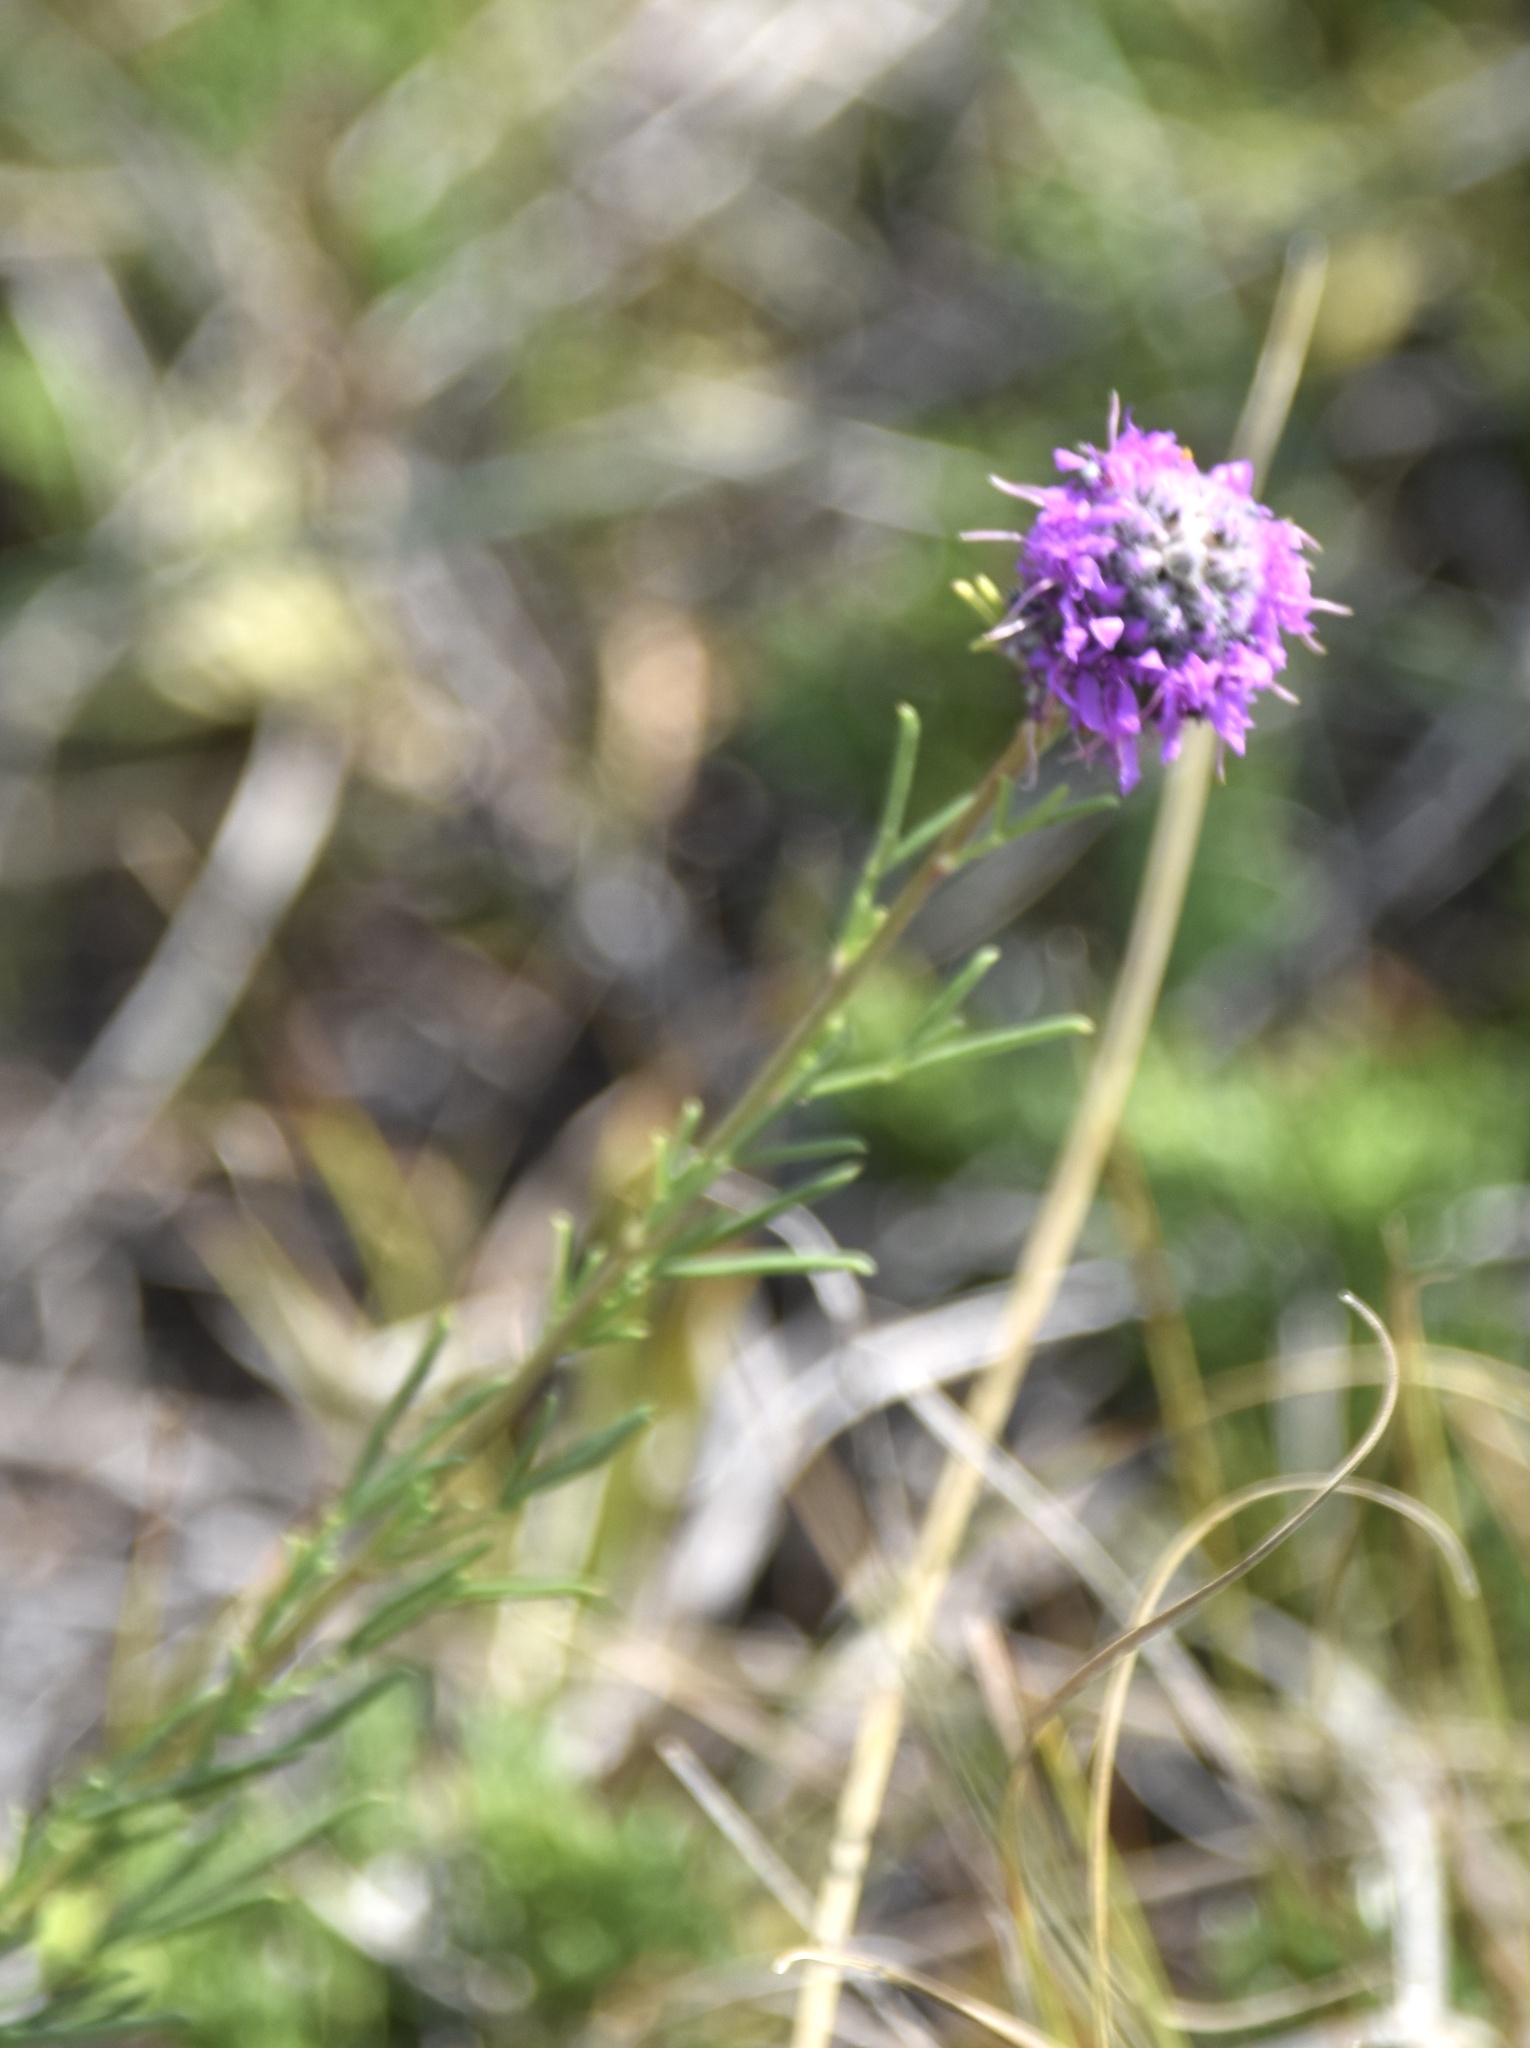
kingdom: Plantae
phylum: Tracheophyta
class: Magnoliopsida
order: Fabales
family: Fabaceae
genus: Dalea
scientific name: Dalea purpurea
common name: Purple prairie-clover
